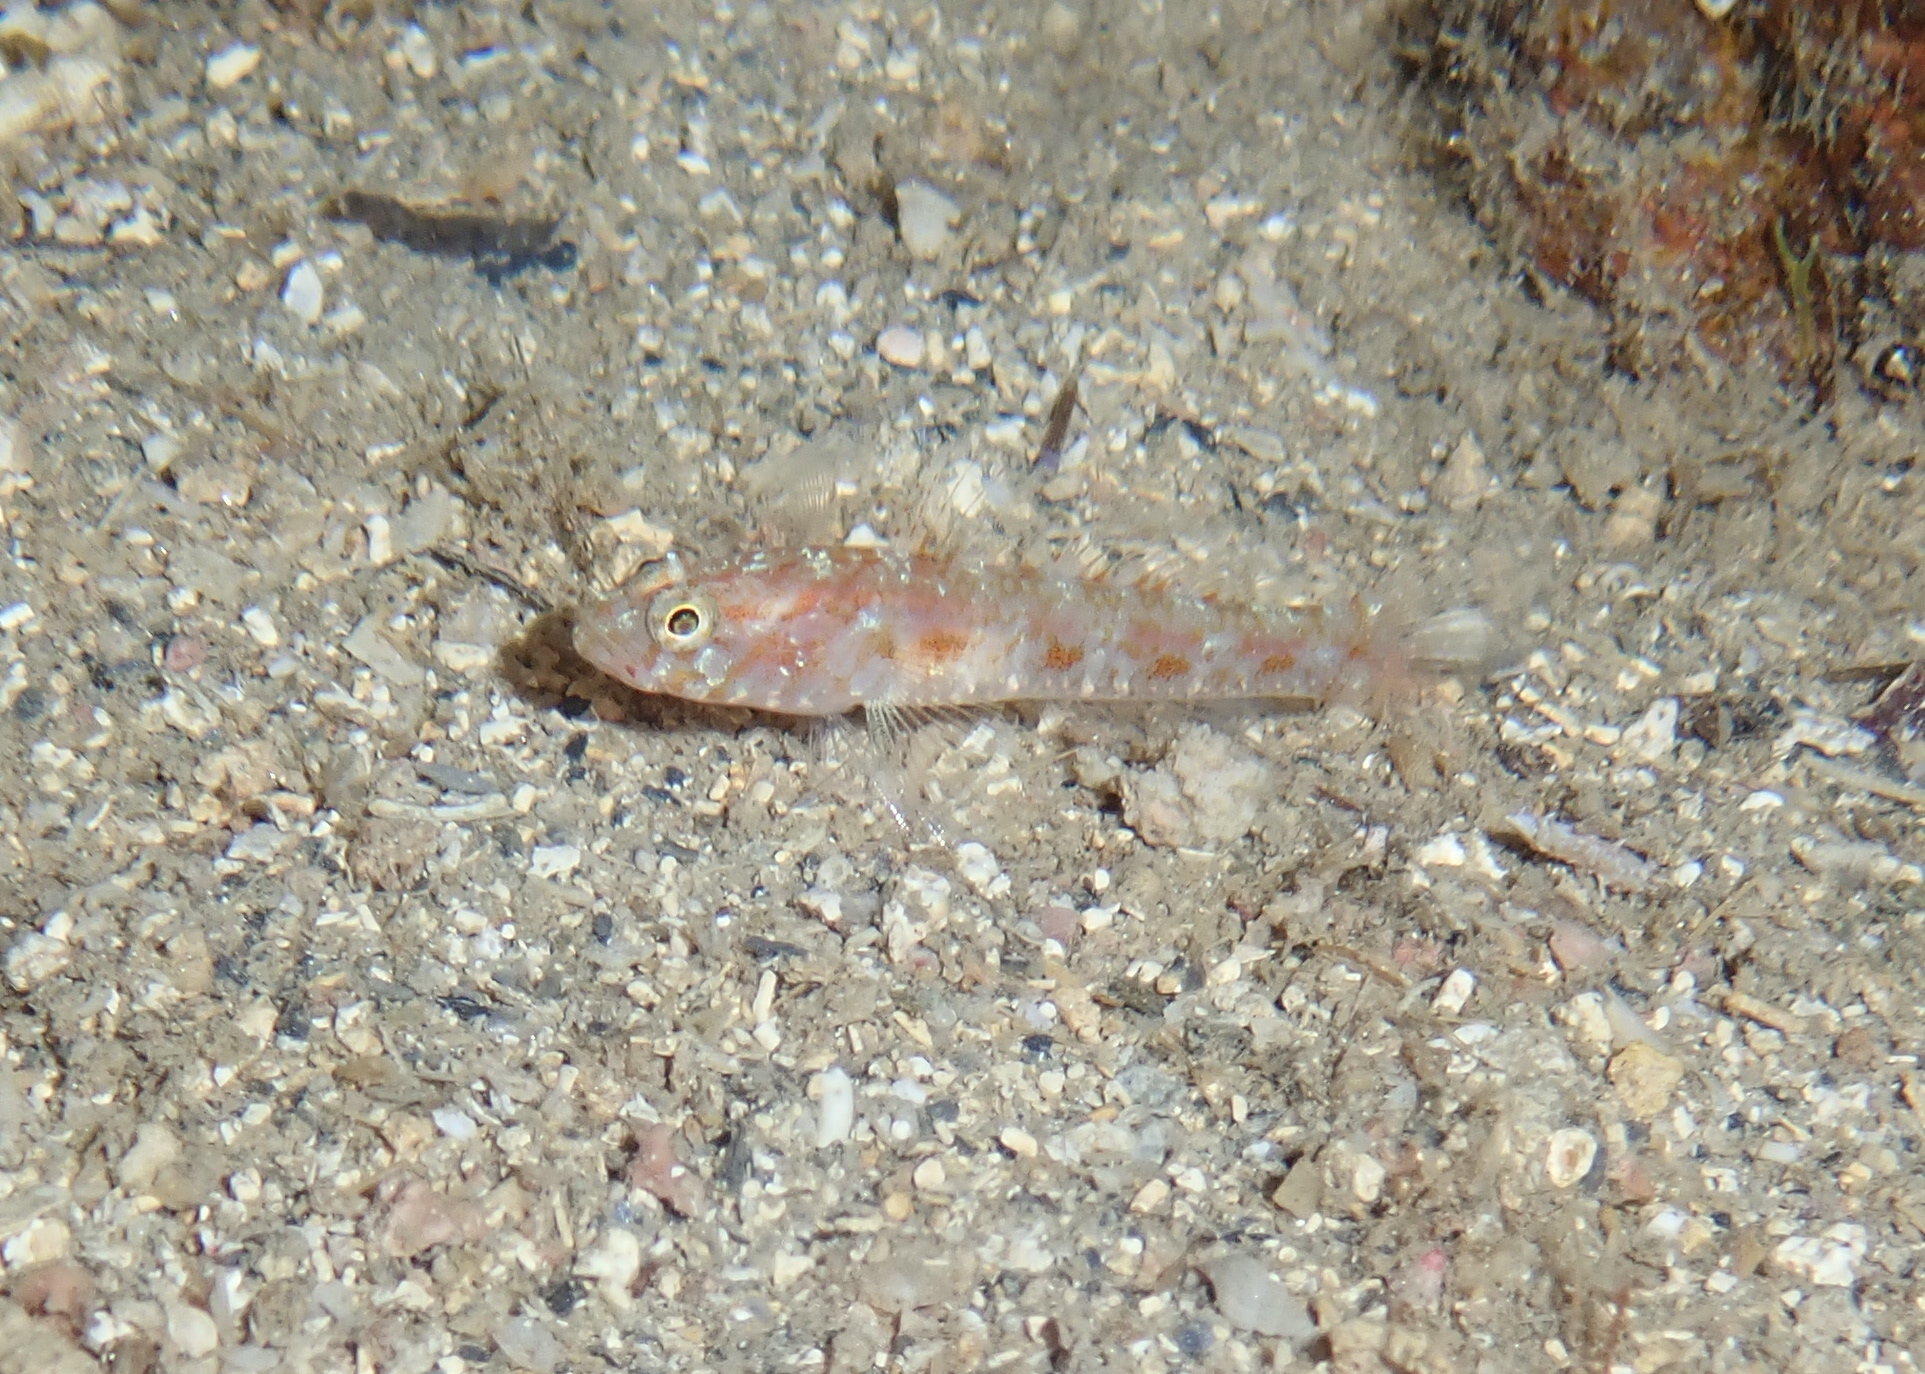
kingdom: Animalia
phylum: Chordata
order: Perciformes
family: Gobiidae
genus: Vanneaugobius
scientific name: Vanneaugobius dollfusi
